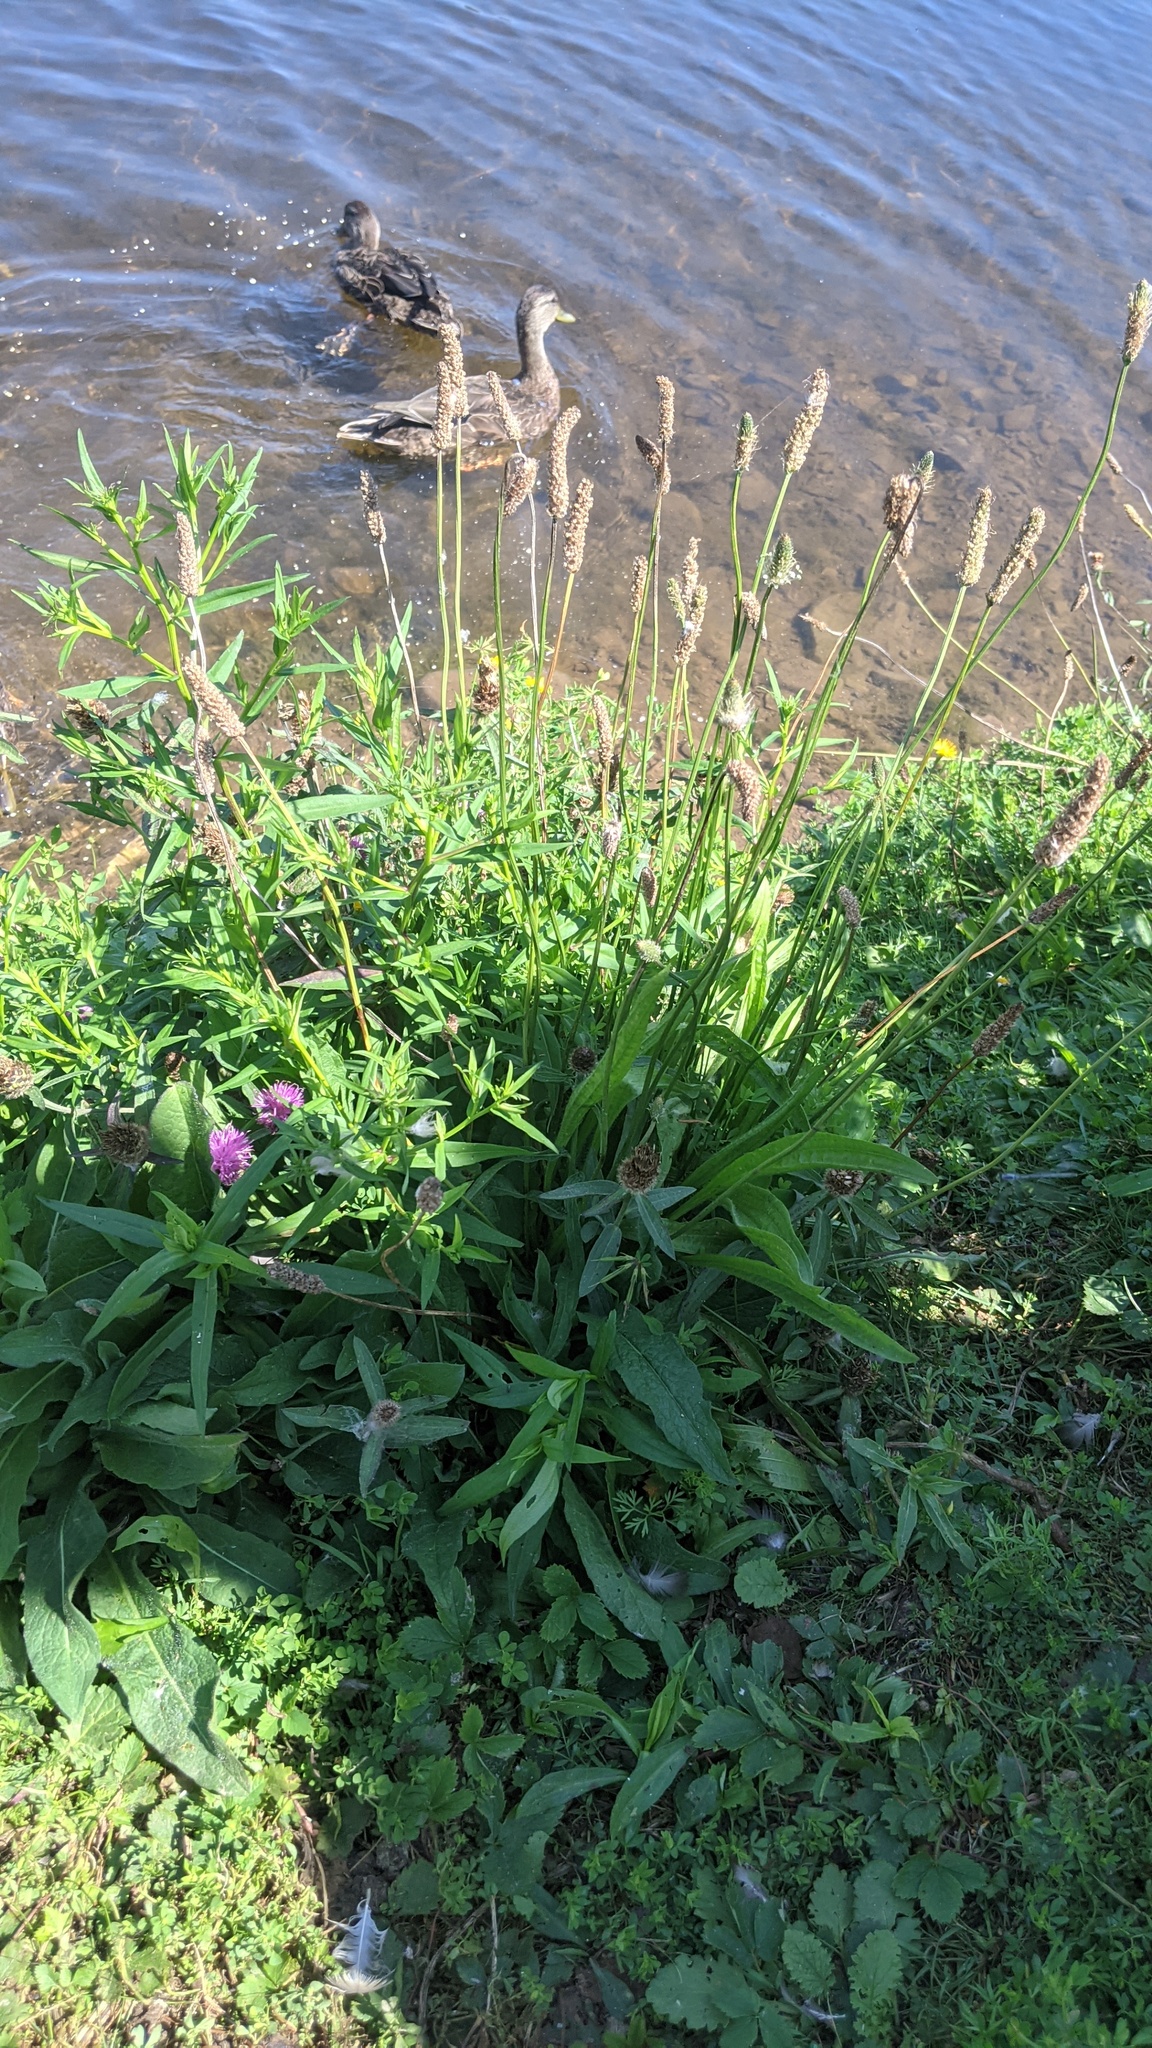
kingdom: Plantae
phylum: Tracheophyta
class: Magnoliopsida
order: Lamiales
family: Plantaginaceae
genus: Plantago
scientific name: Plantago lanceolata
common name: Ribwort plantain
